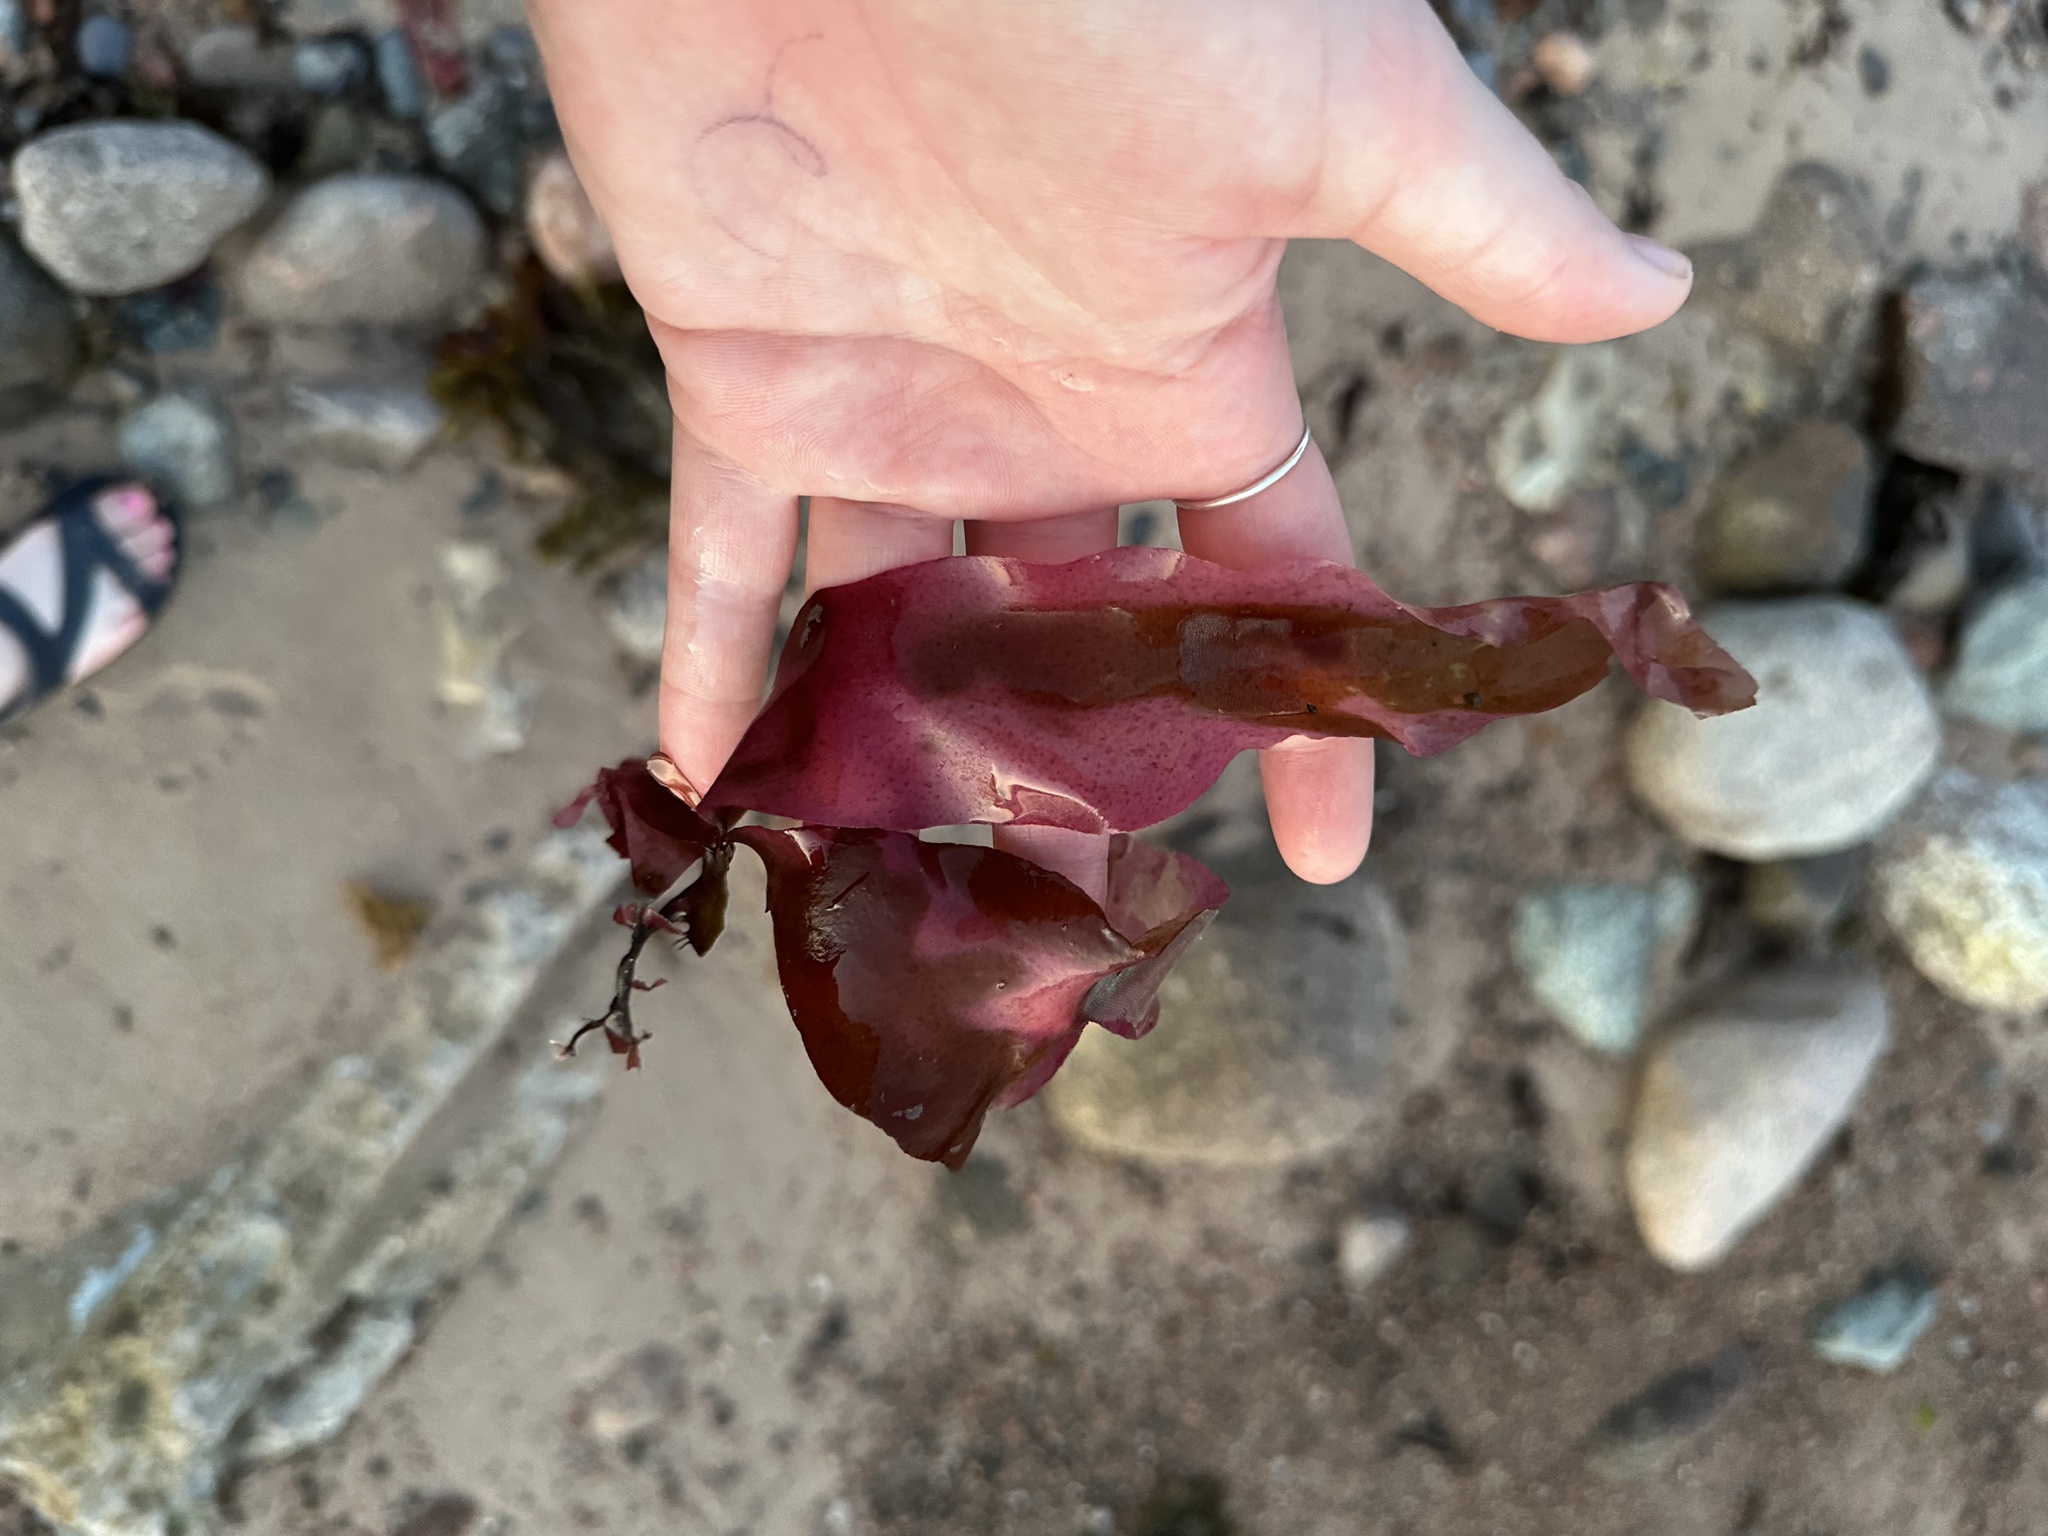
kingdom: Plantae
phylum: Rhodophyta
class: Florideophyceae
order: Palmariales
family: Palmariaceae
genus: Palmaria
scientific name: Palmaria palmata
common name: Dulse
